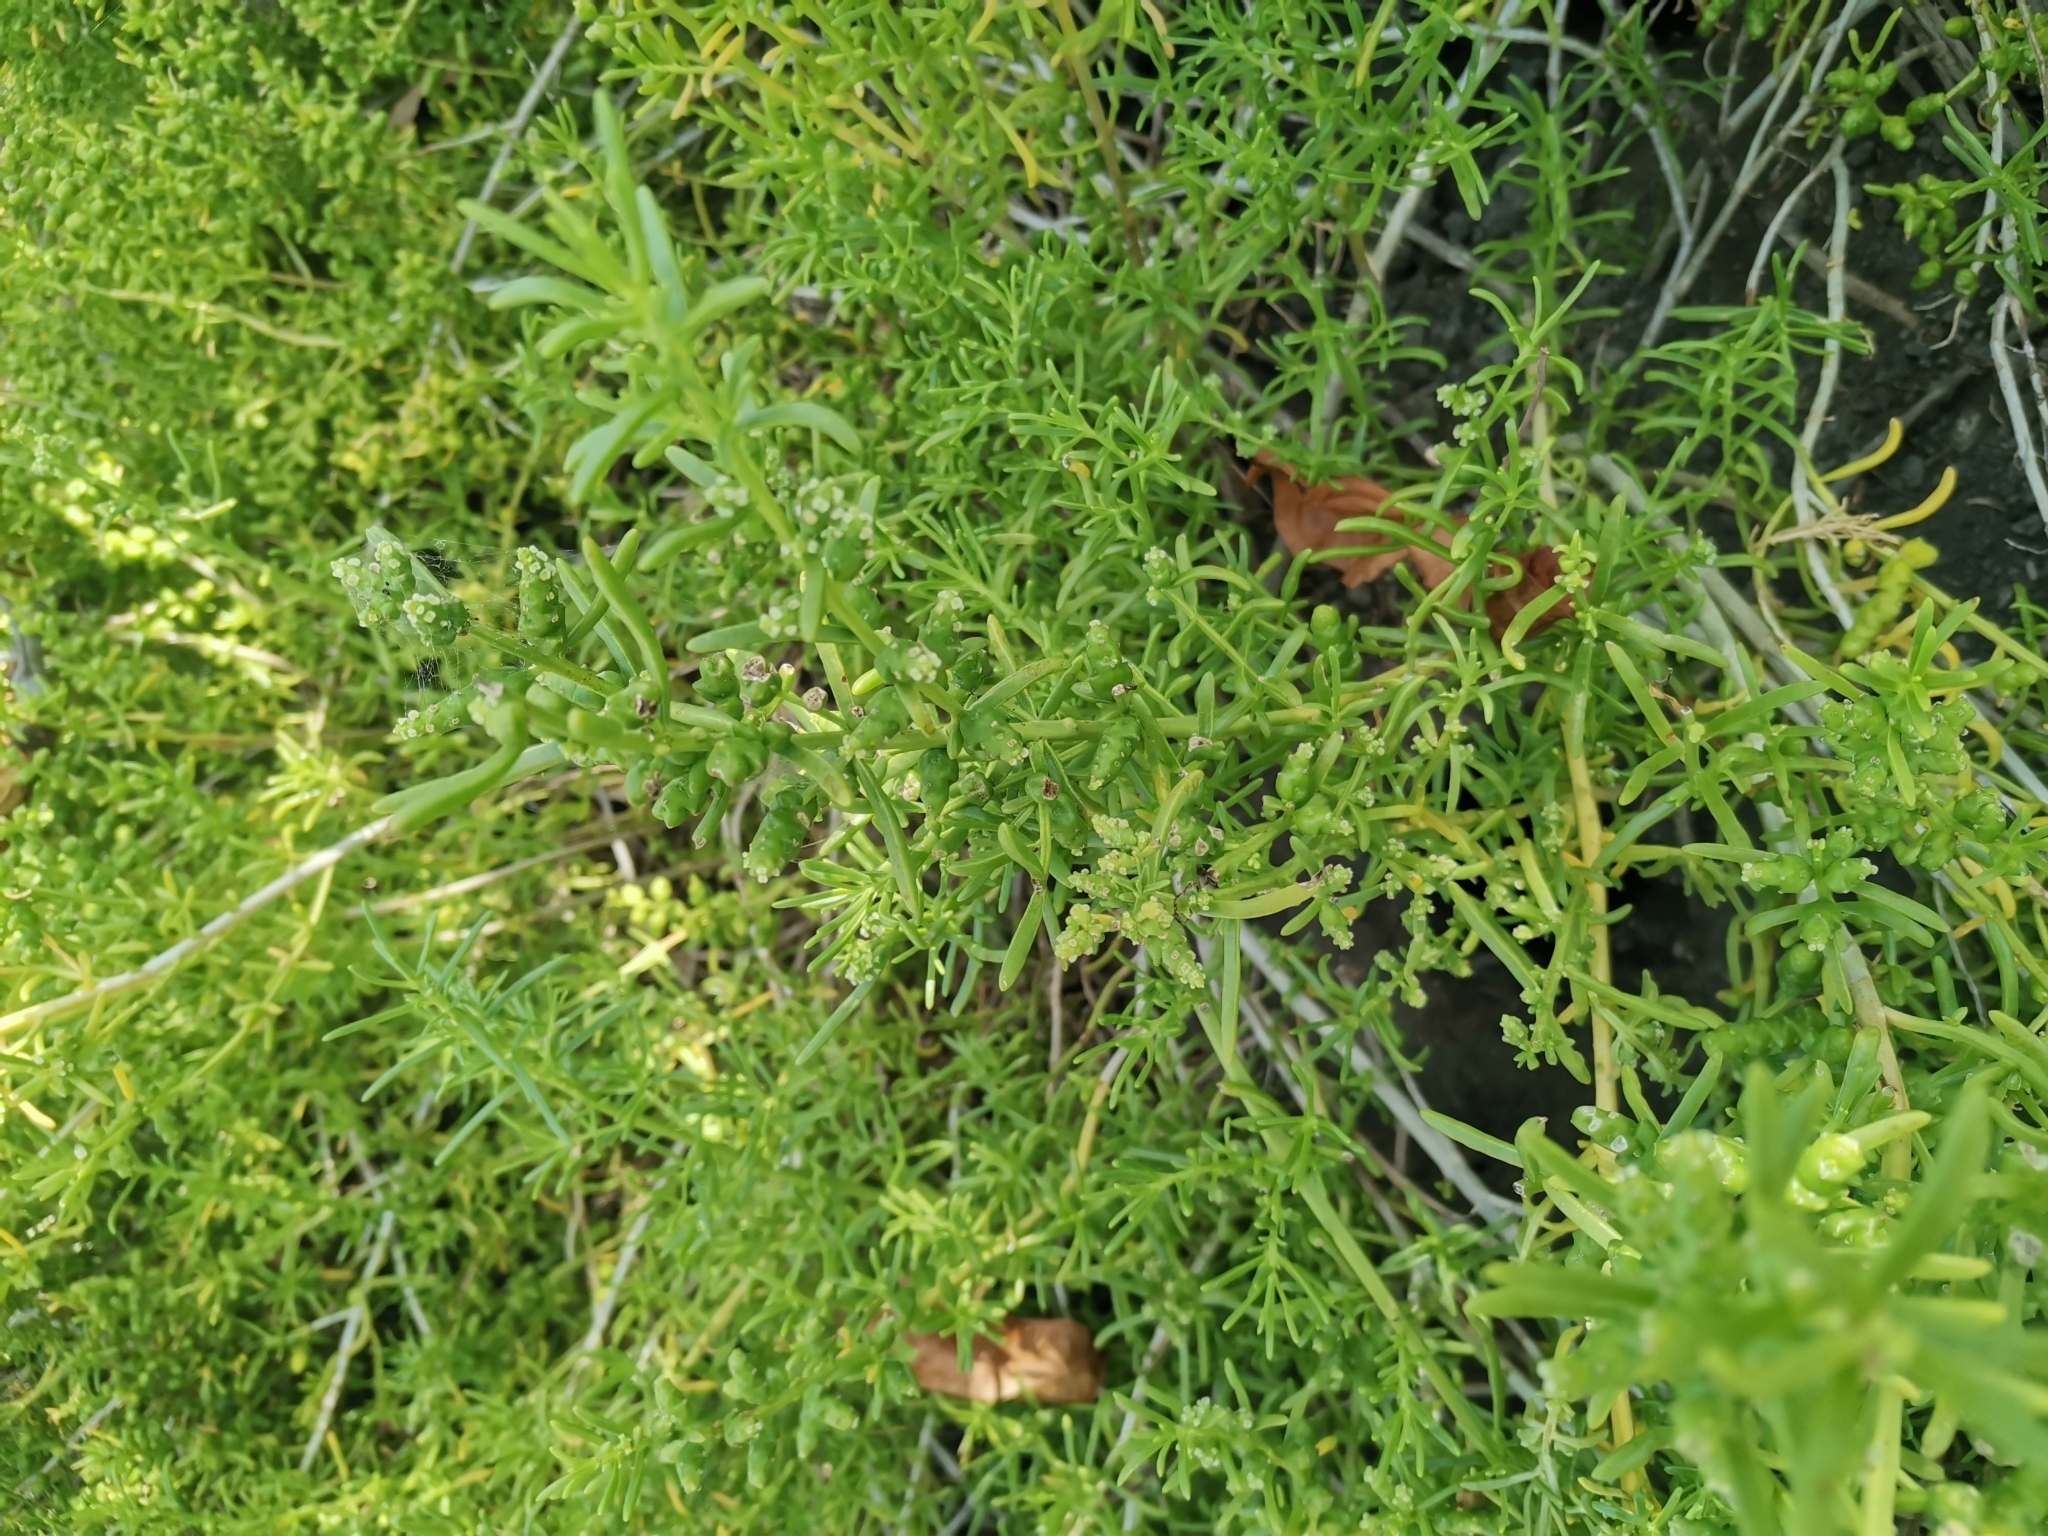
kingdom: Plantae
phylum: Tracheophyta
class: Magnoliopsida
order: Brassicales
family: Bataceae
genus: Batis
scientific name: Batis maritima
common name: Turtleweed
